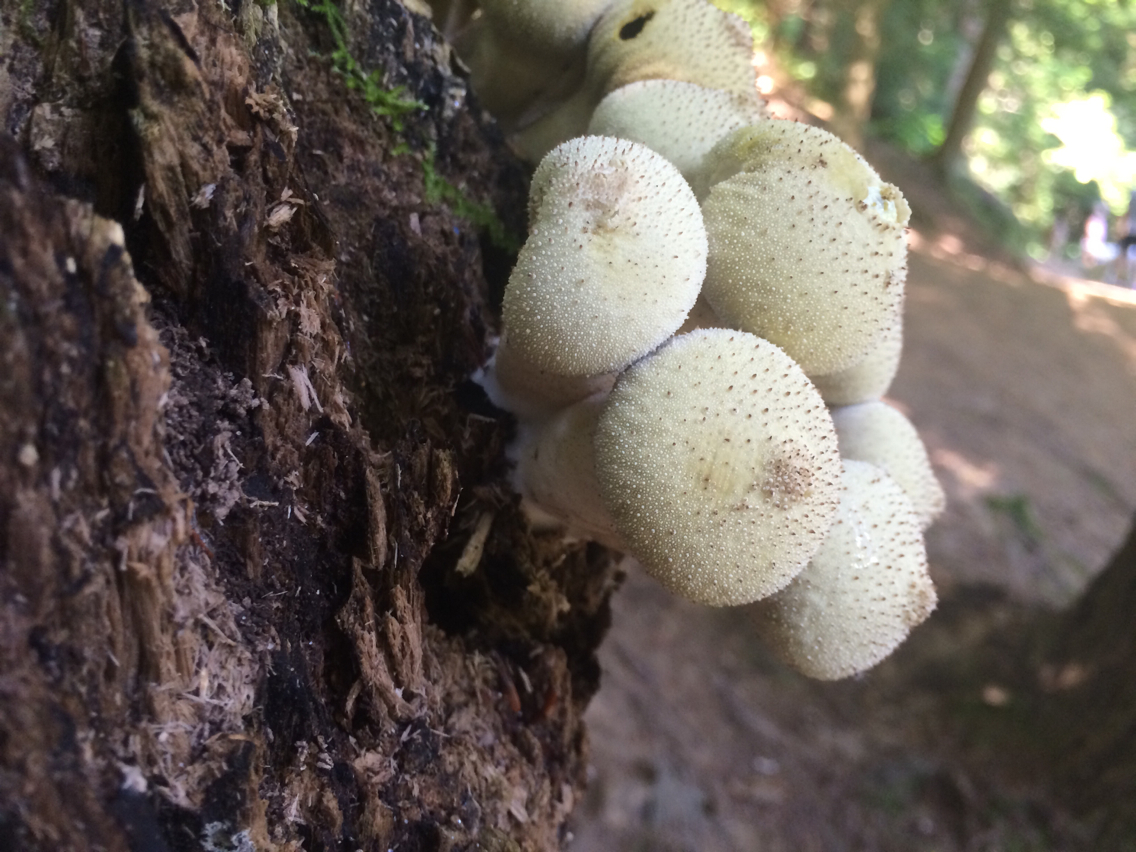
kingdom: Fungi
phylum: Basidiomycota
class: Agaricomycetes
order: Agaricales
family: Lycoperdaceae
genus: Apioperdon
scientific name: Apioperdon pyriforme
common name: Pear-shaped puffball
